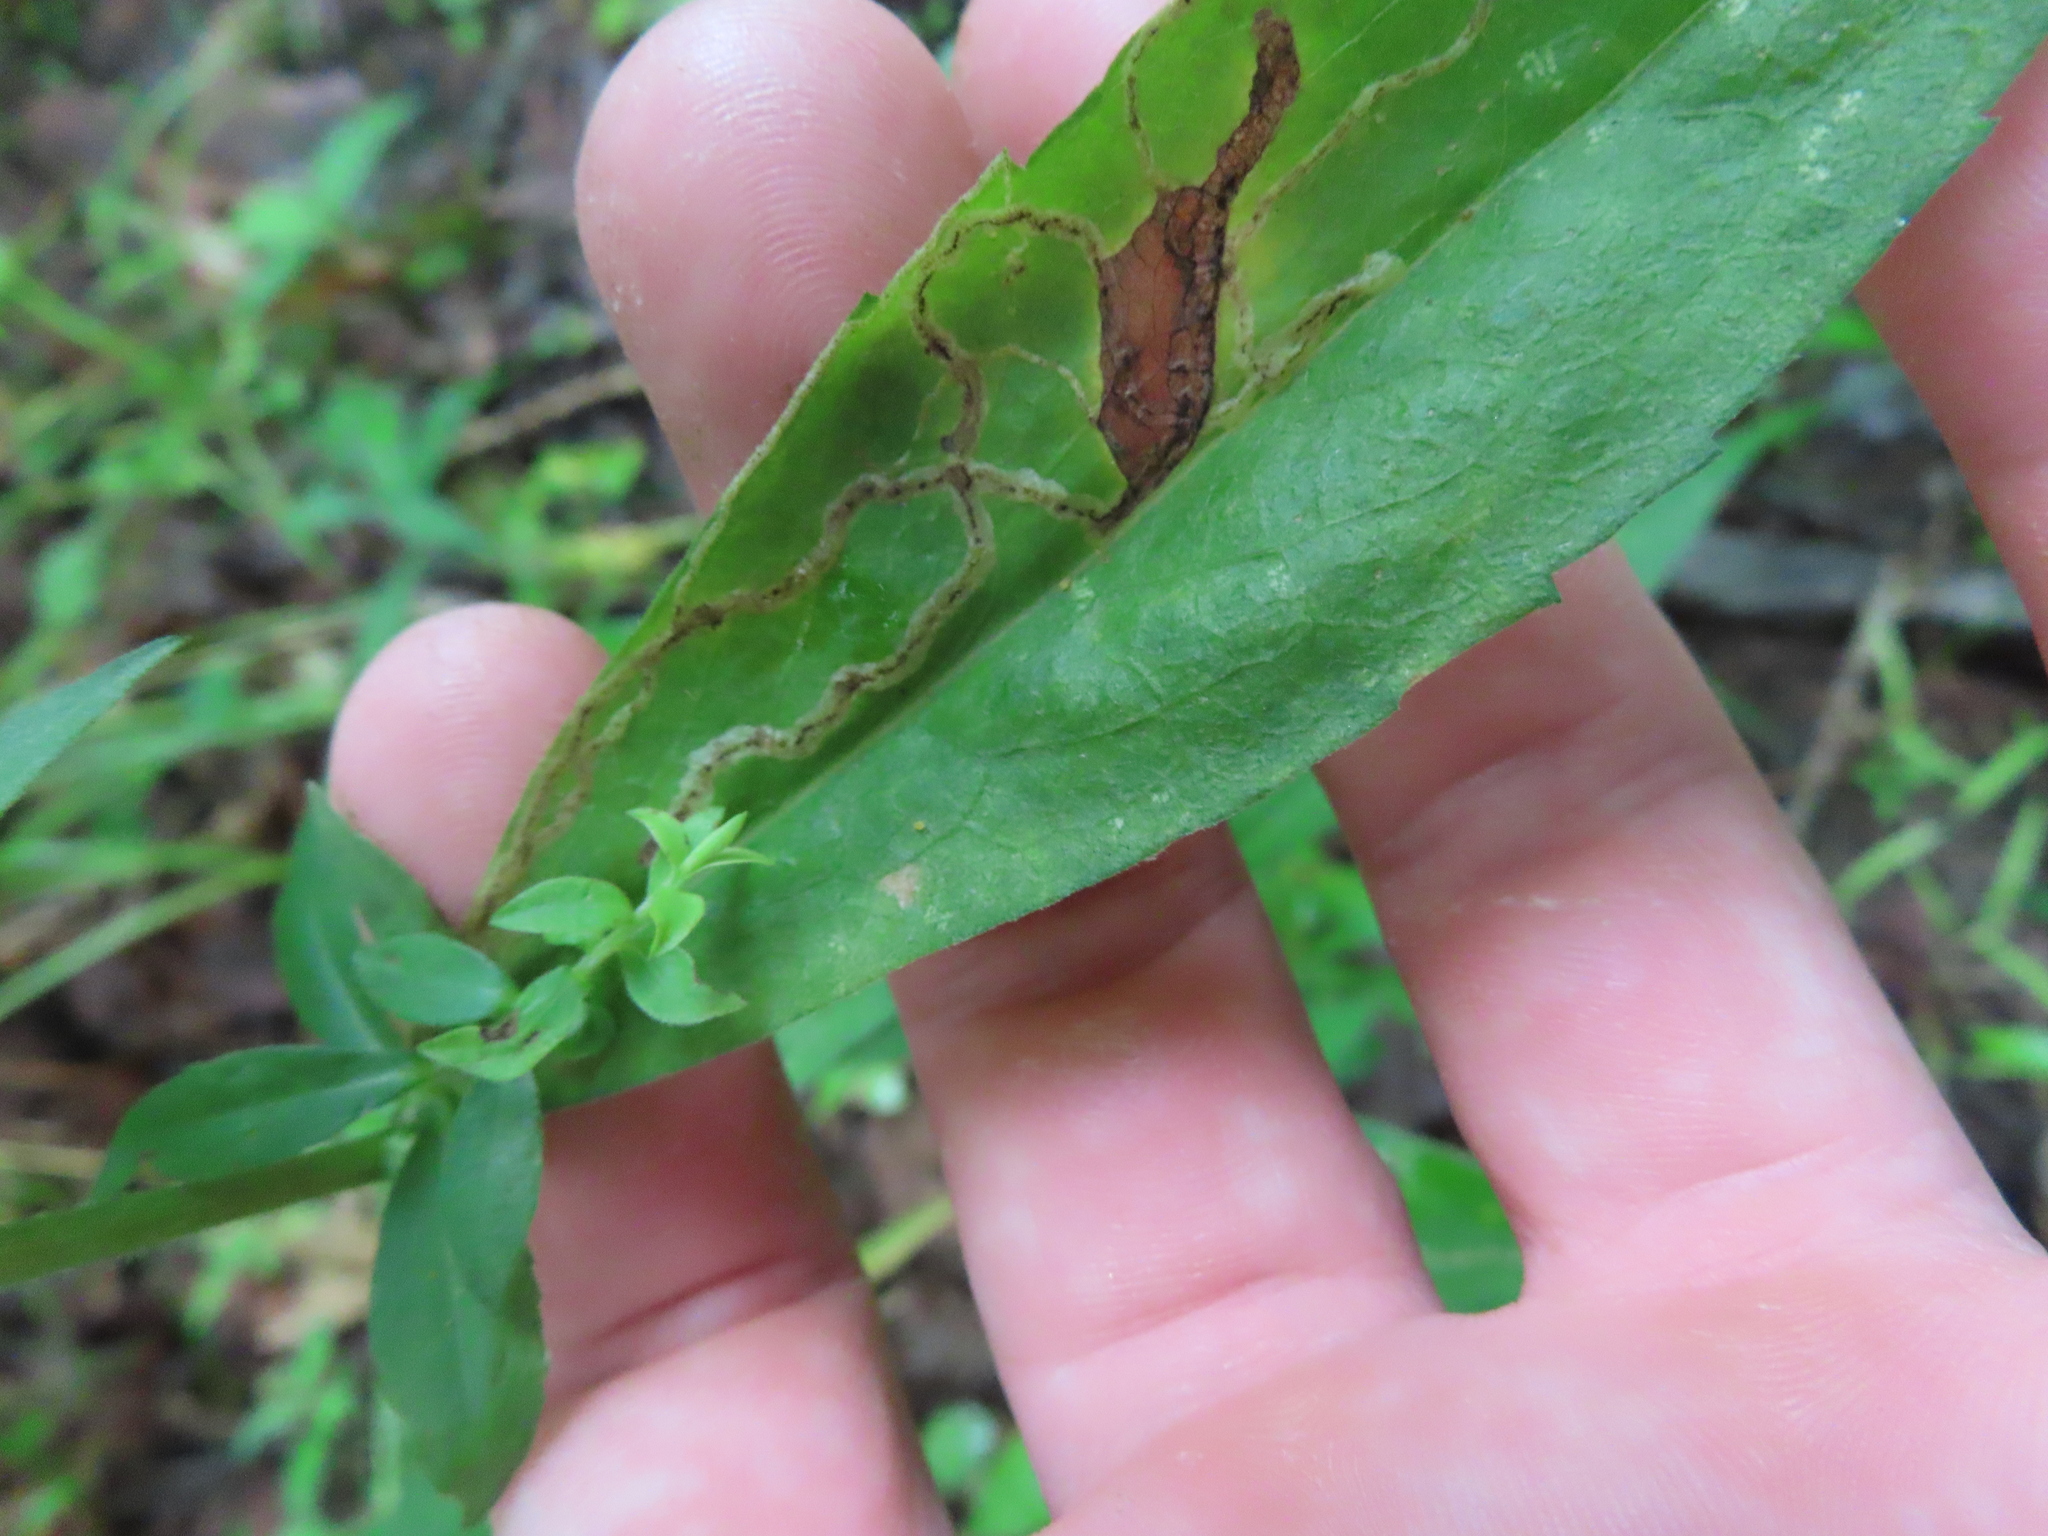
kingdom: Animalia
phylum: Arthropoda
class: Insecta
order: Diptera
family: Agromyzidae
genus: Liriomyza
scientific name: Liriomyza eupatorii
